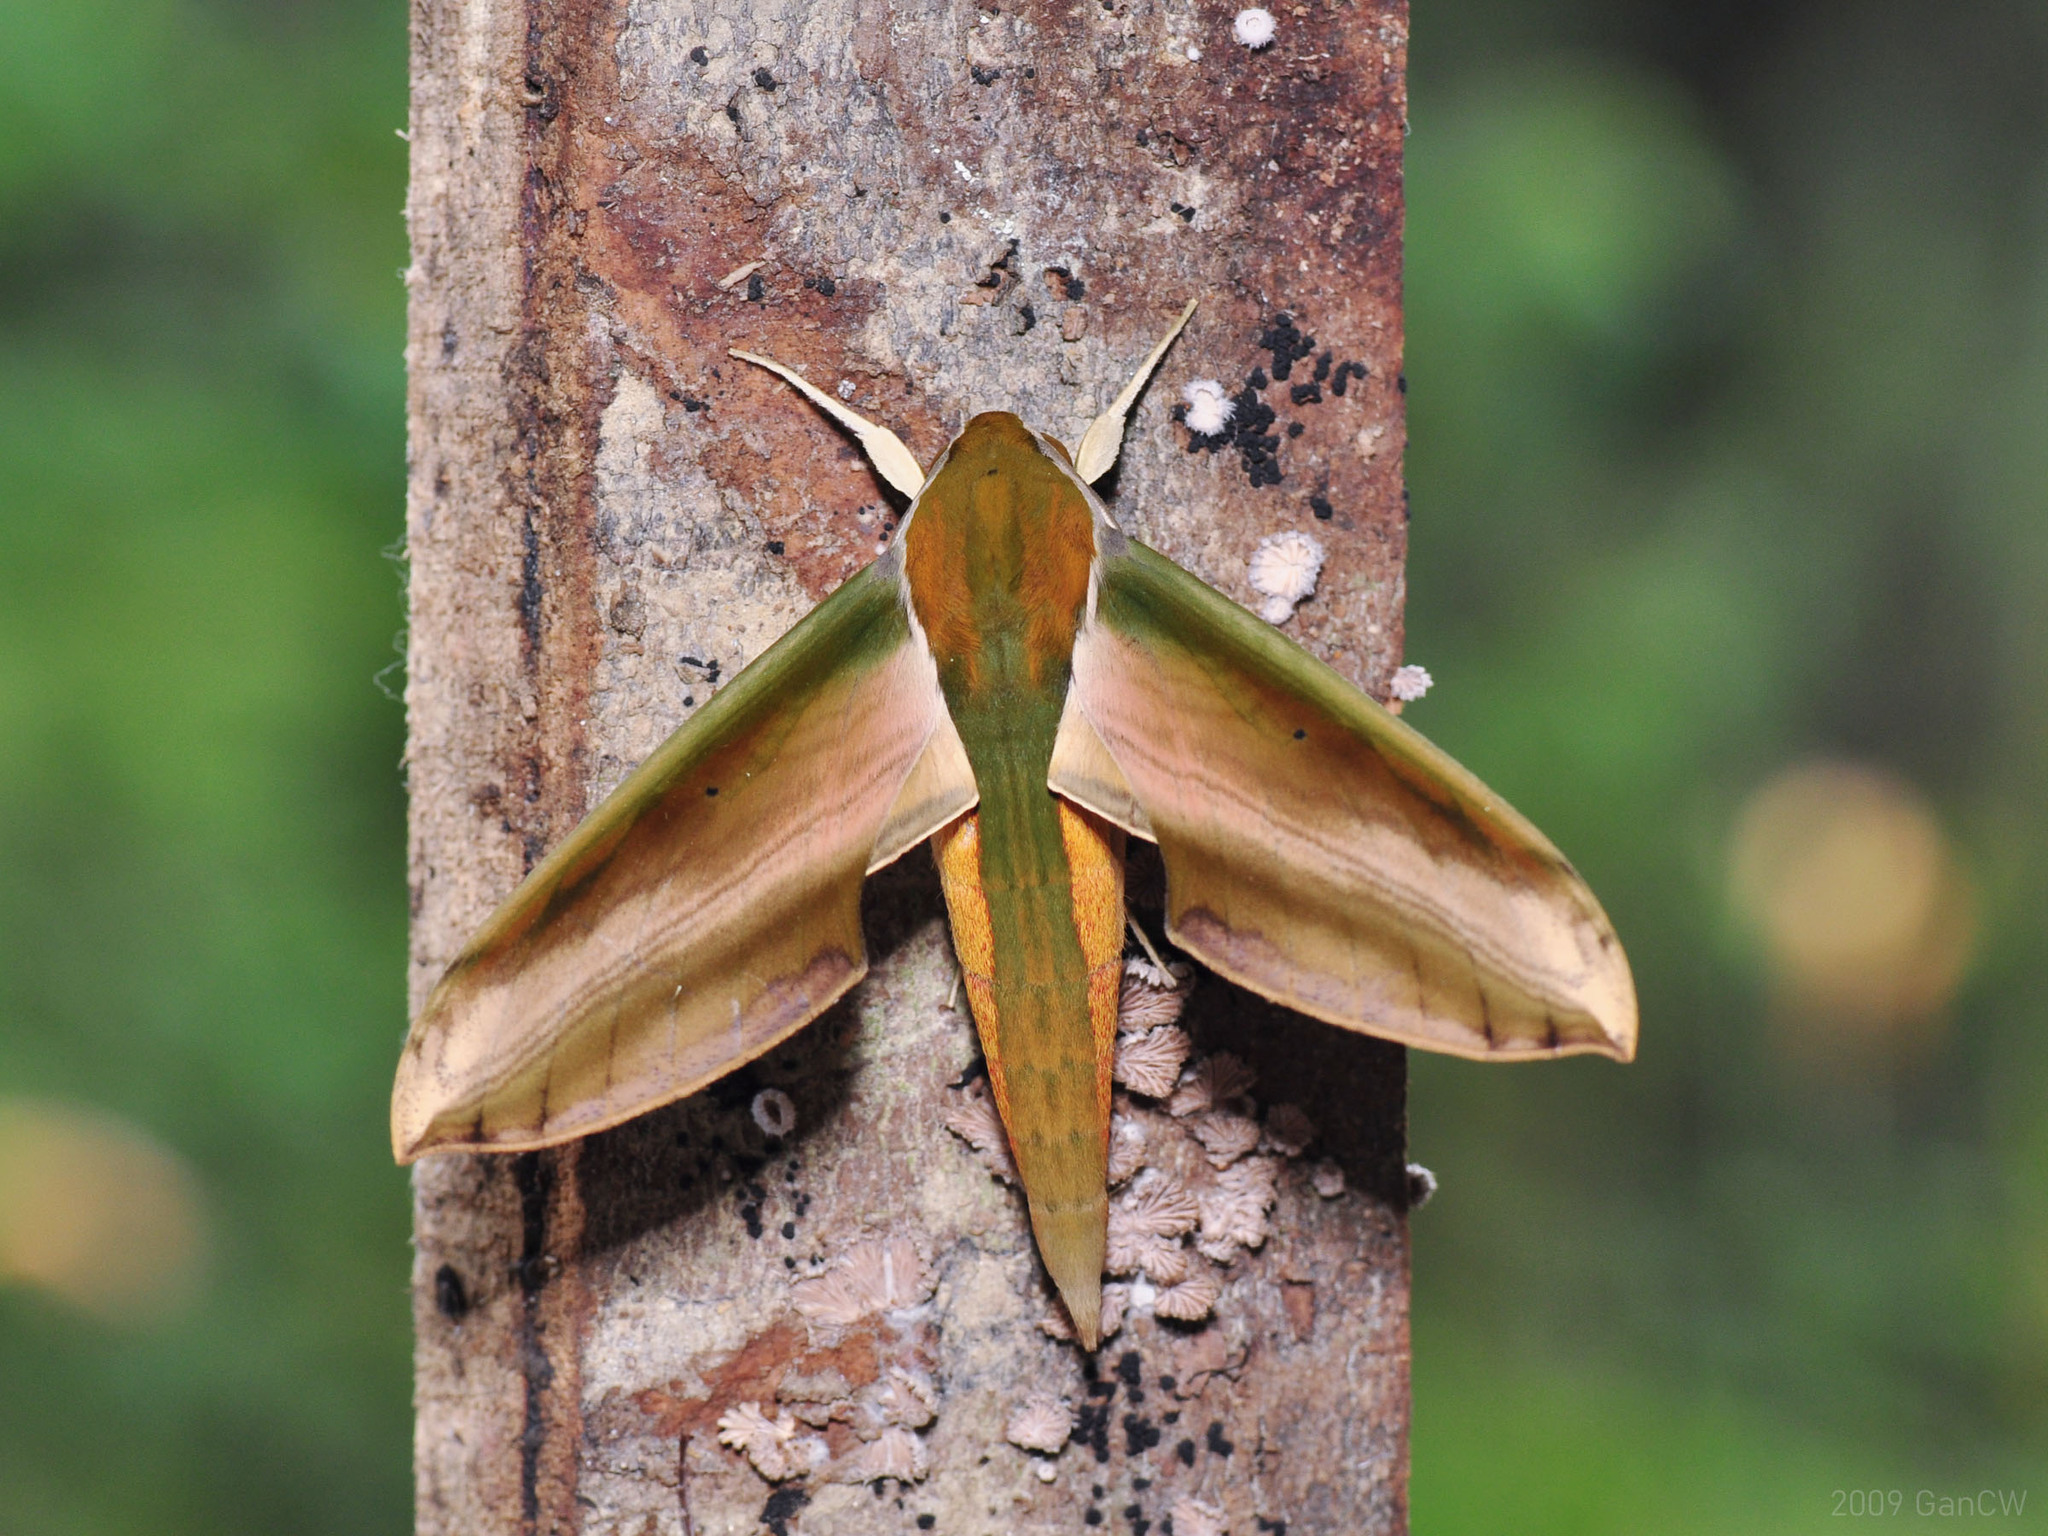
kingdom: Animalia
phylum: Arthropoda
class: Insecta
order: Lepidoptera
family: Sphingidae
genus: Theretra
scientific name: Theretra nessus
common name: Yam hawk moth
